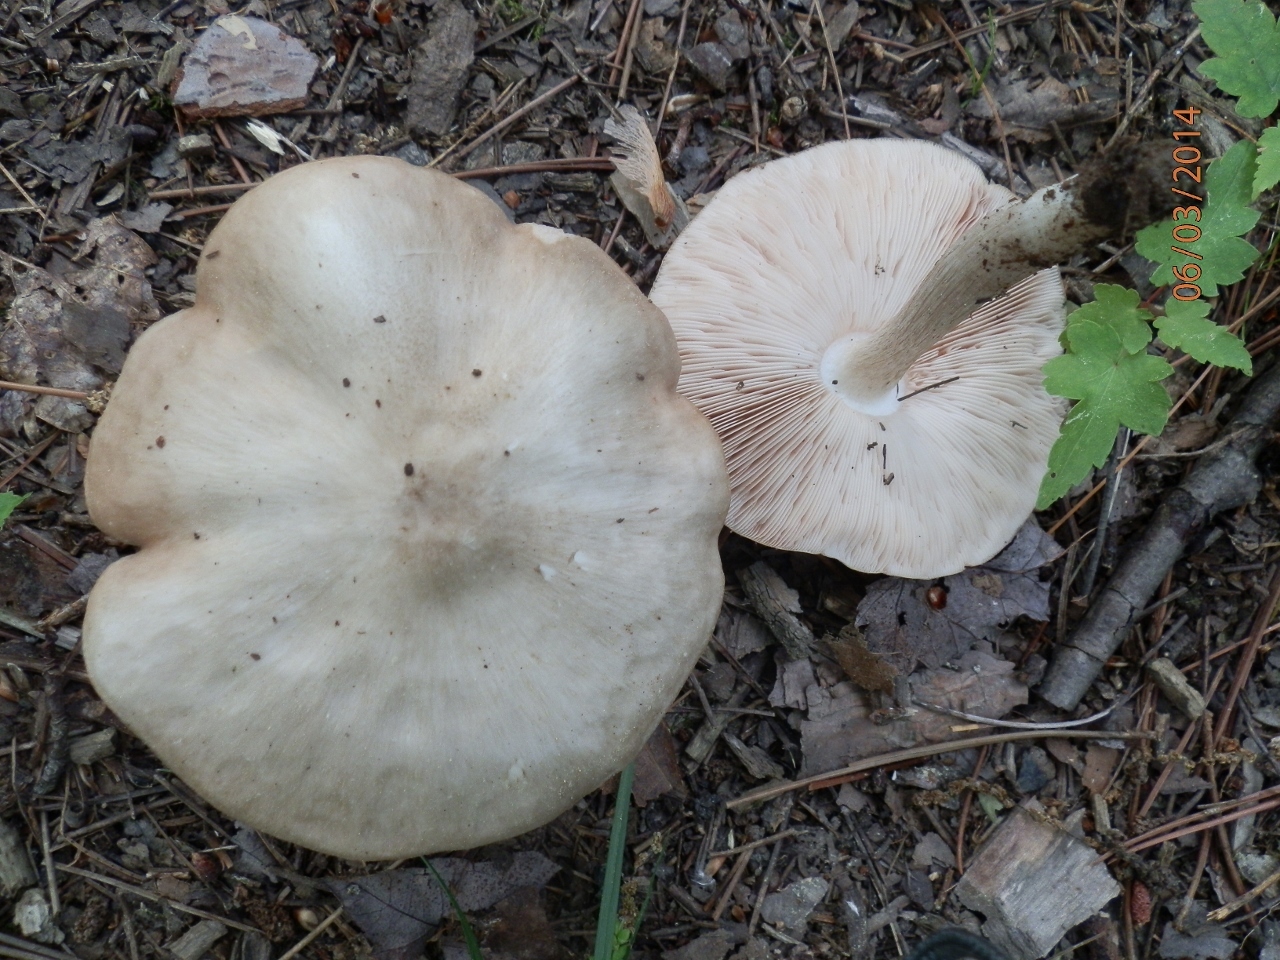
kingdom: Fungi
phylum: Basidiomycota
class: Agaricomycetes
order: Agaricales
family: Pluteaceae
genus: Pluteus
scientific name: Pluteus petasatus
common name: Scaly shield
